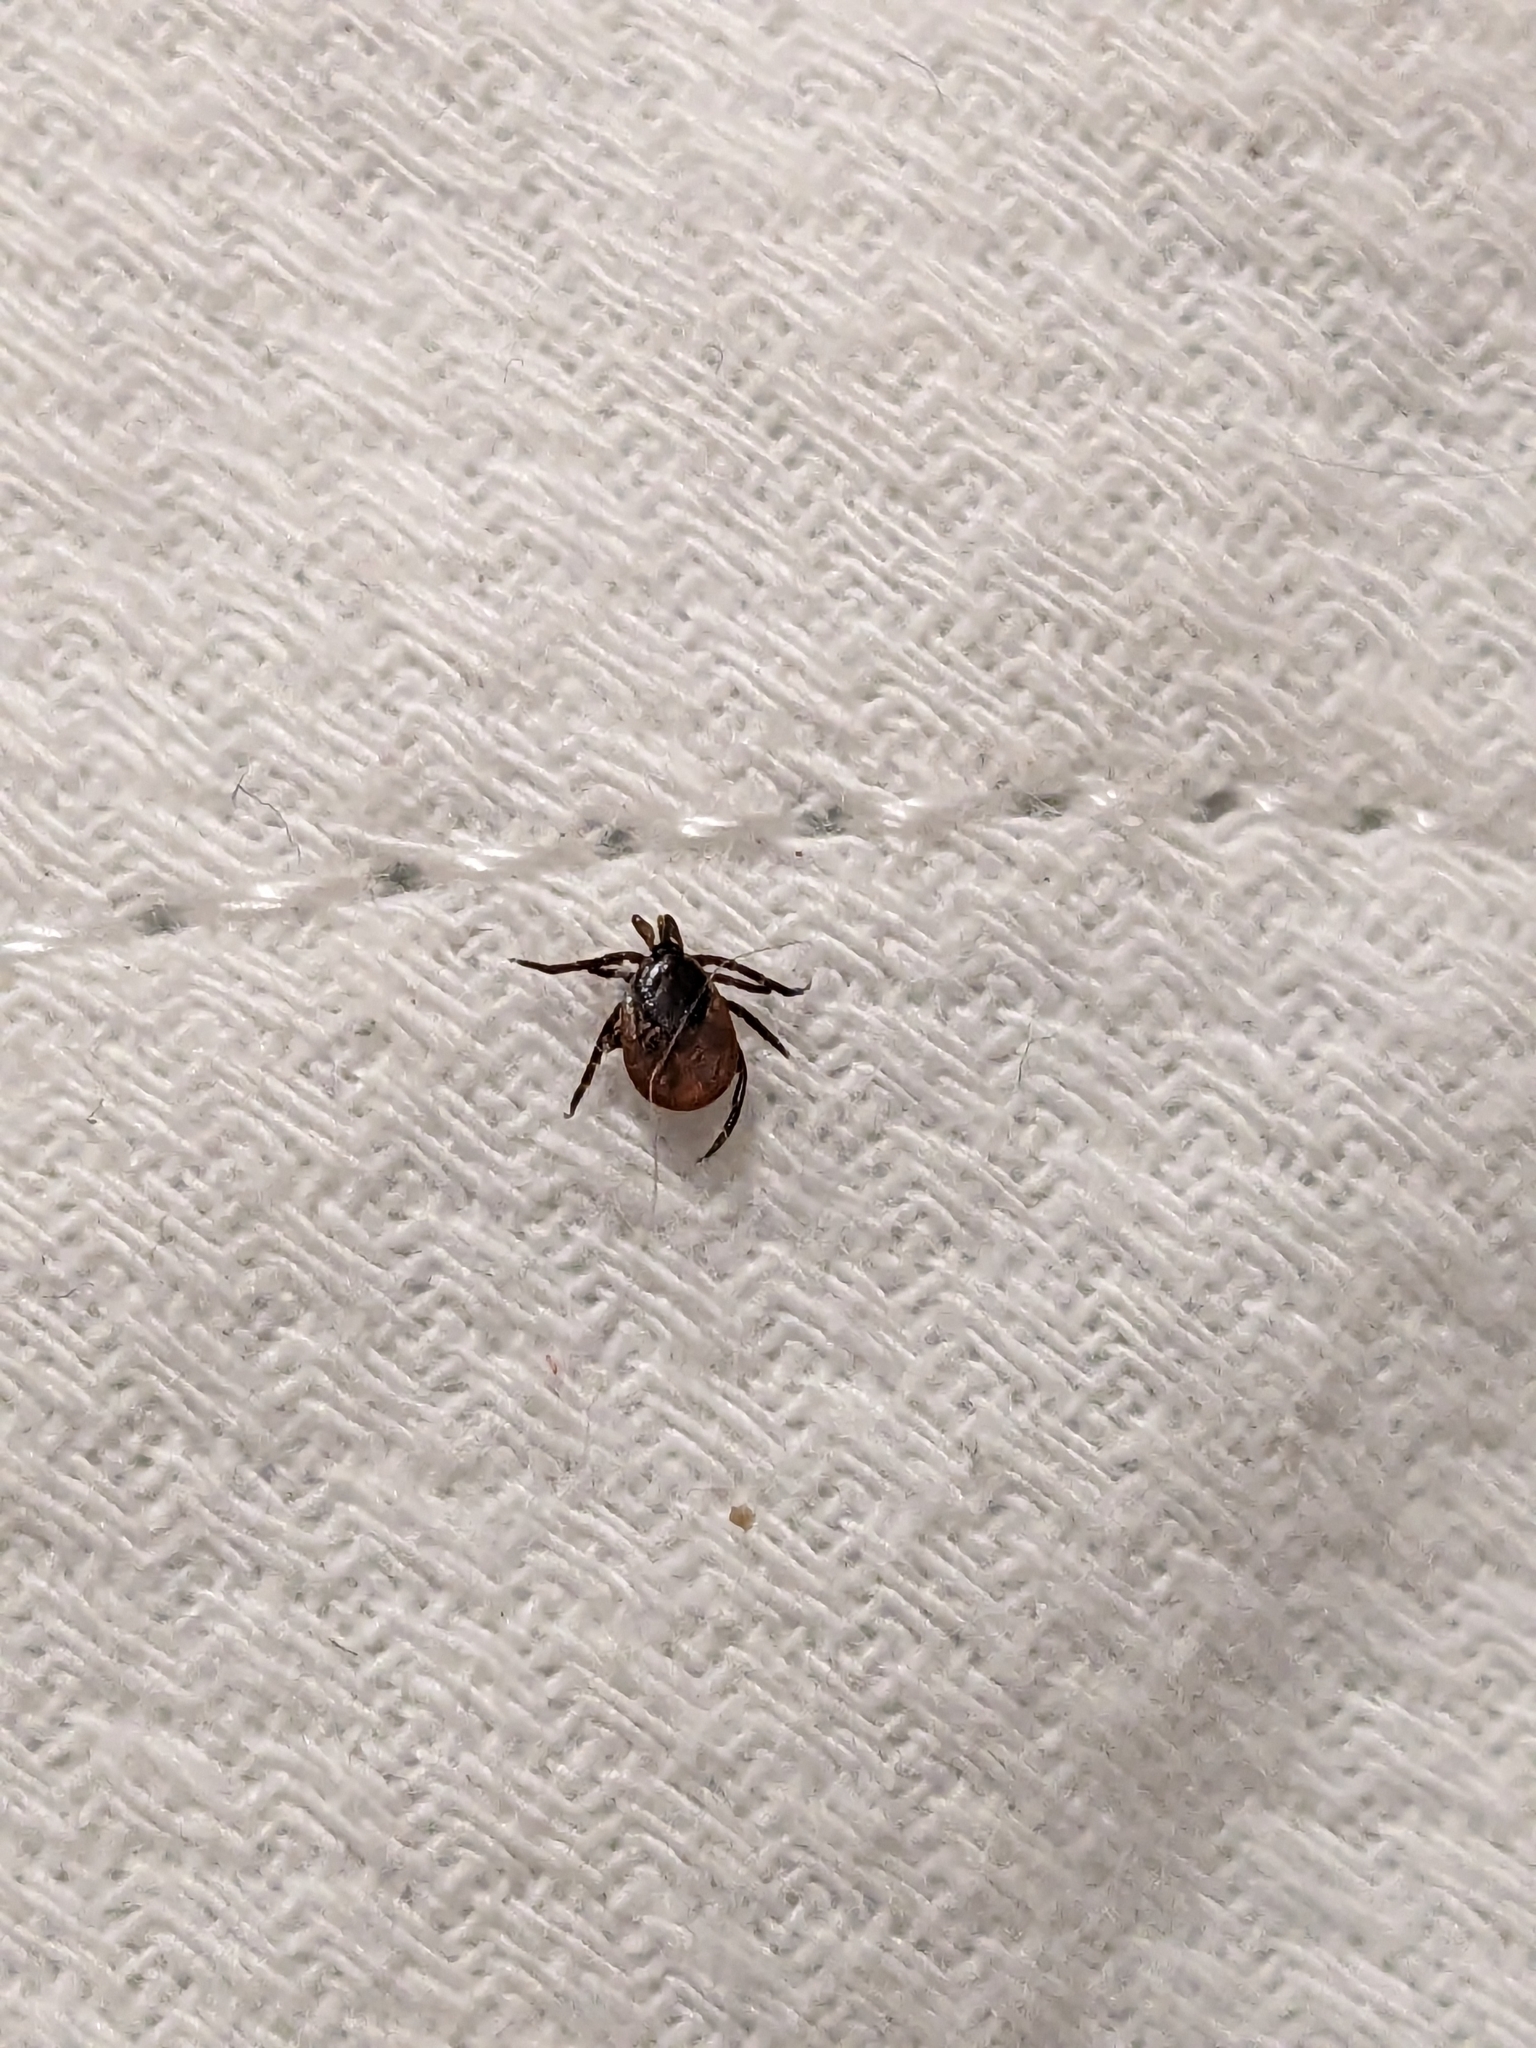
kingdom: Animalia
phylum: Arthropoda
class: Arachnida
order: Ixodida
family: Ixodidae
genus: Ixodes
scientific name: Ixodes scapularis
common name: Black legged tick
